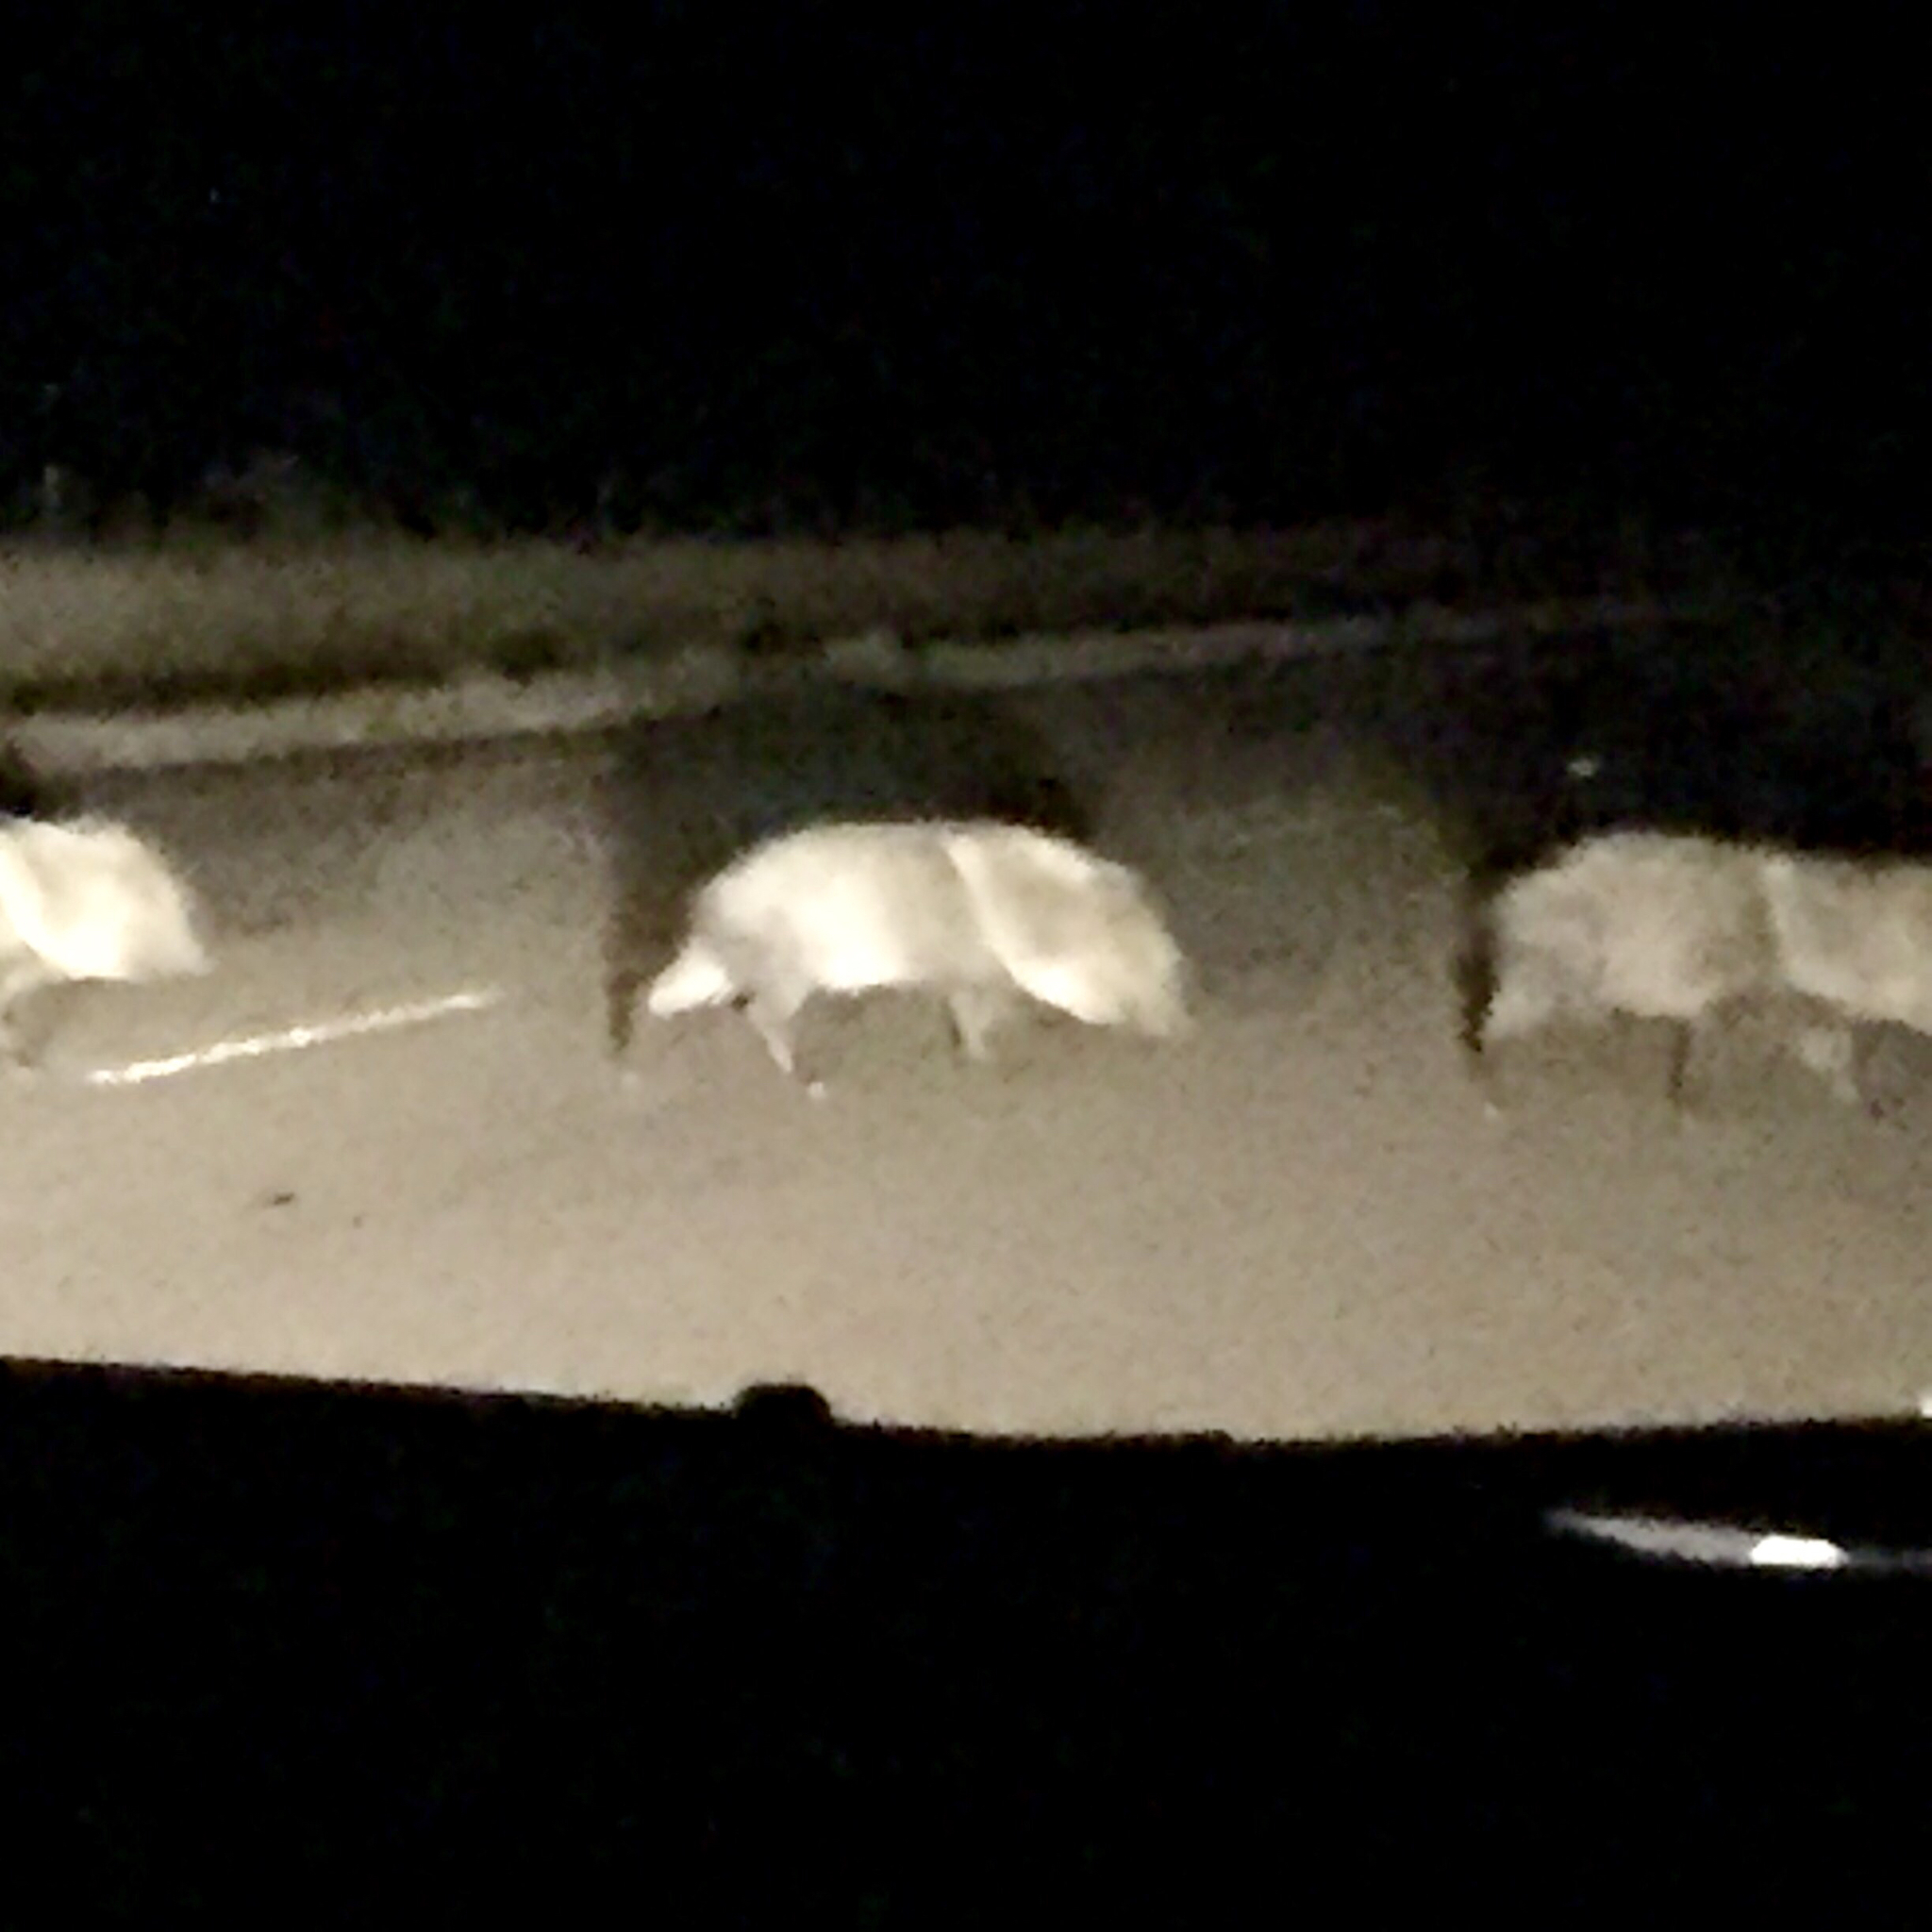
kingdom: Animalia
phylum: Chordata
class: Mammalia
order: Artiodactyla
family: Tayassuidae
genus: Pecari
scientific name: Pecari tajacu
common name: Collared peccary
